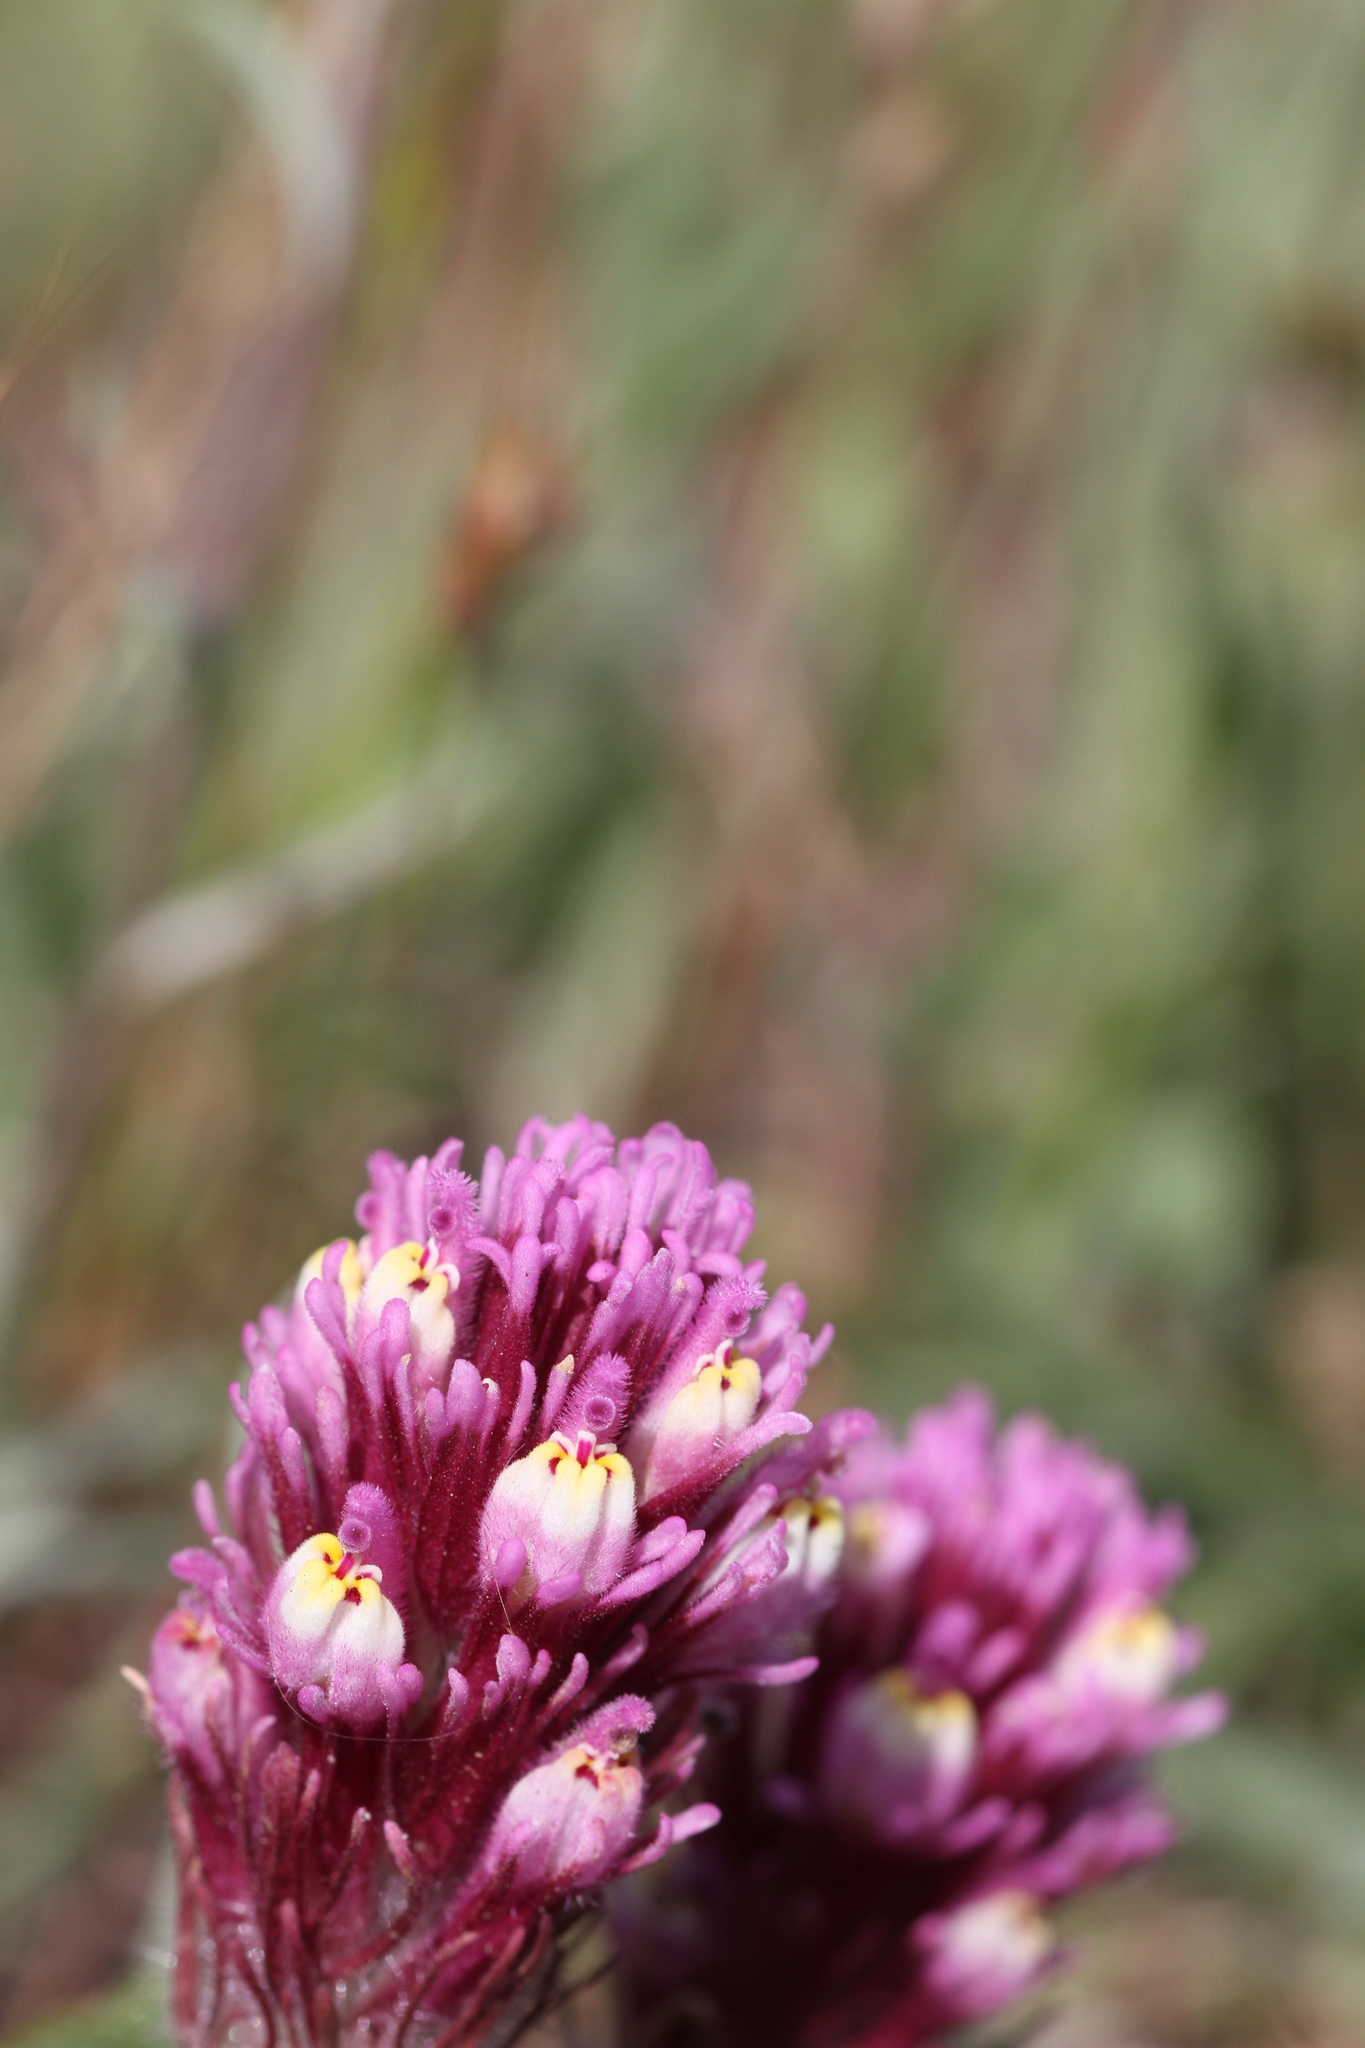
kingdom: Plantae
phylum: Tracheophyta
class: Magnoliopsida
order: Lamiales
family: Orobanchaceae
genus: Castilleja
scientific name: Castilleja exserta
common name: Purple owl-clover
